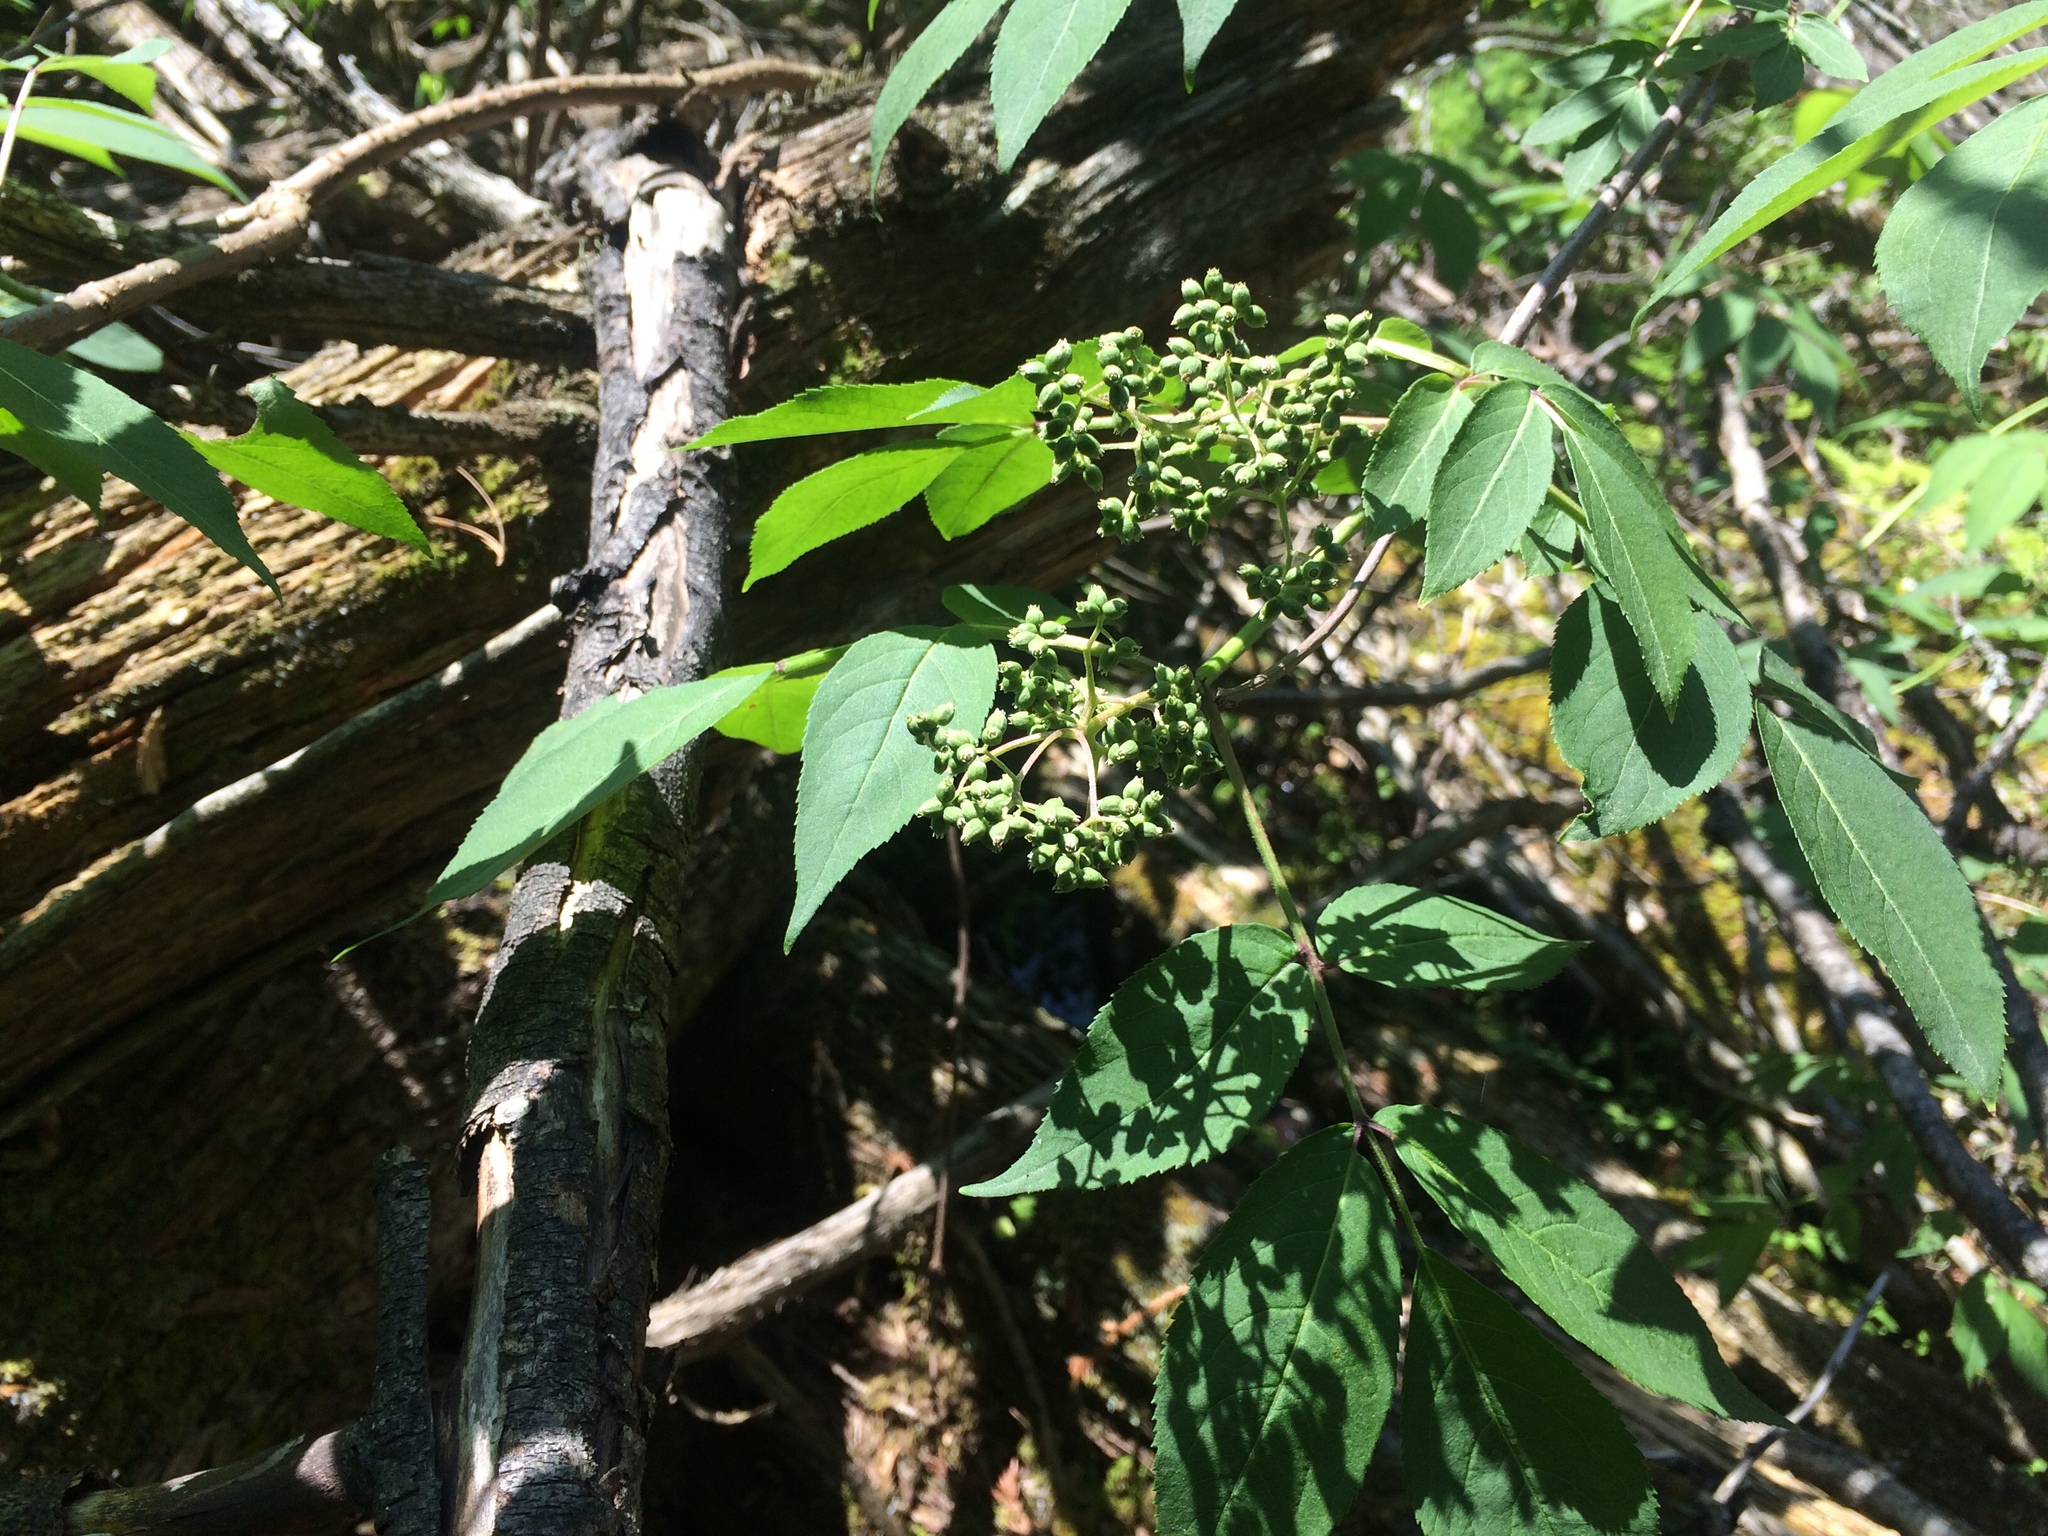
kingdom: Plantae
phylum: Tracheophyta
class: Magnoliopsida
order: Dipsacales
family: Viburnaceae
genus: Sambucus
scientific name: Sambucus racemosa
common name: Red-berried elder
